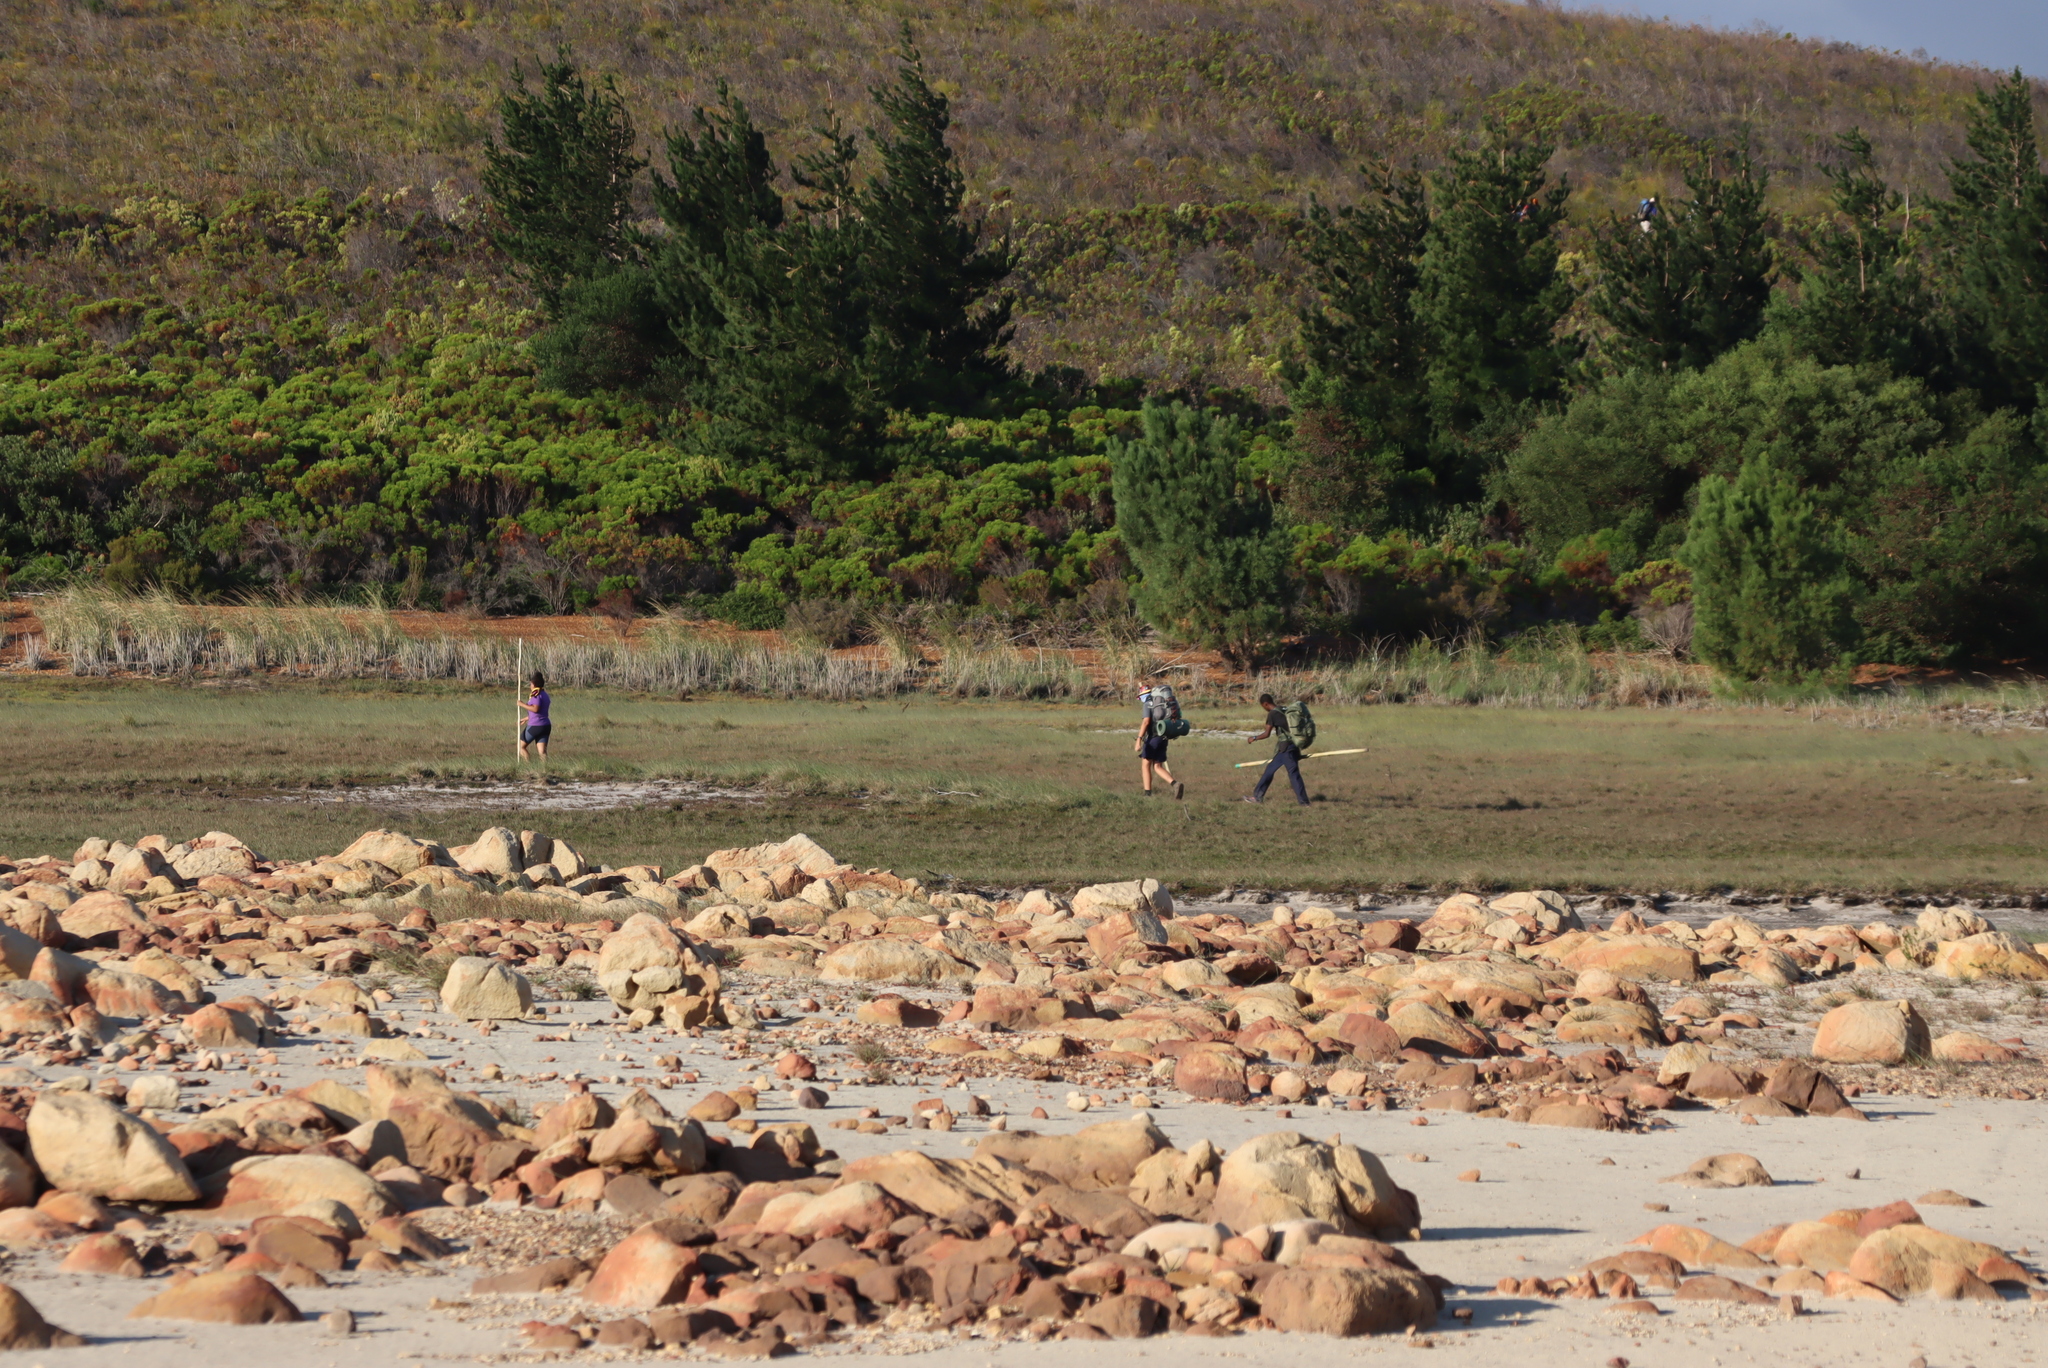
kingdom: Plantae
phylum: Tracheophyta
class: Pinopsida
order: Pinales
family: Pinaceae
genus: Pinus
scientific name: Pinus radiata
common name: Monterey pine
